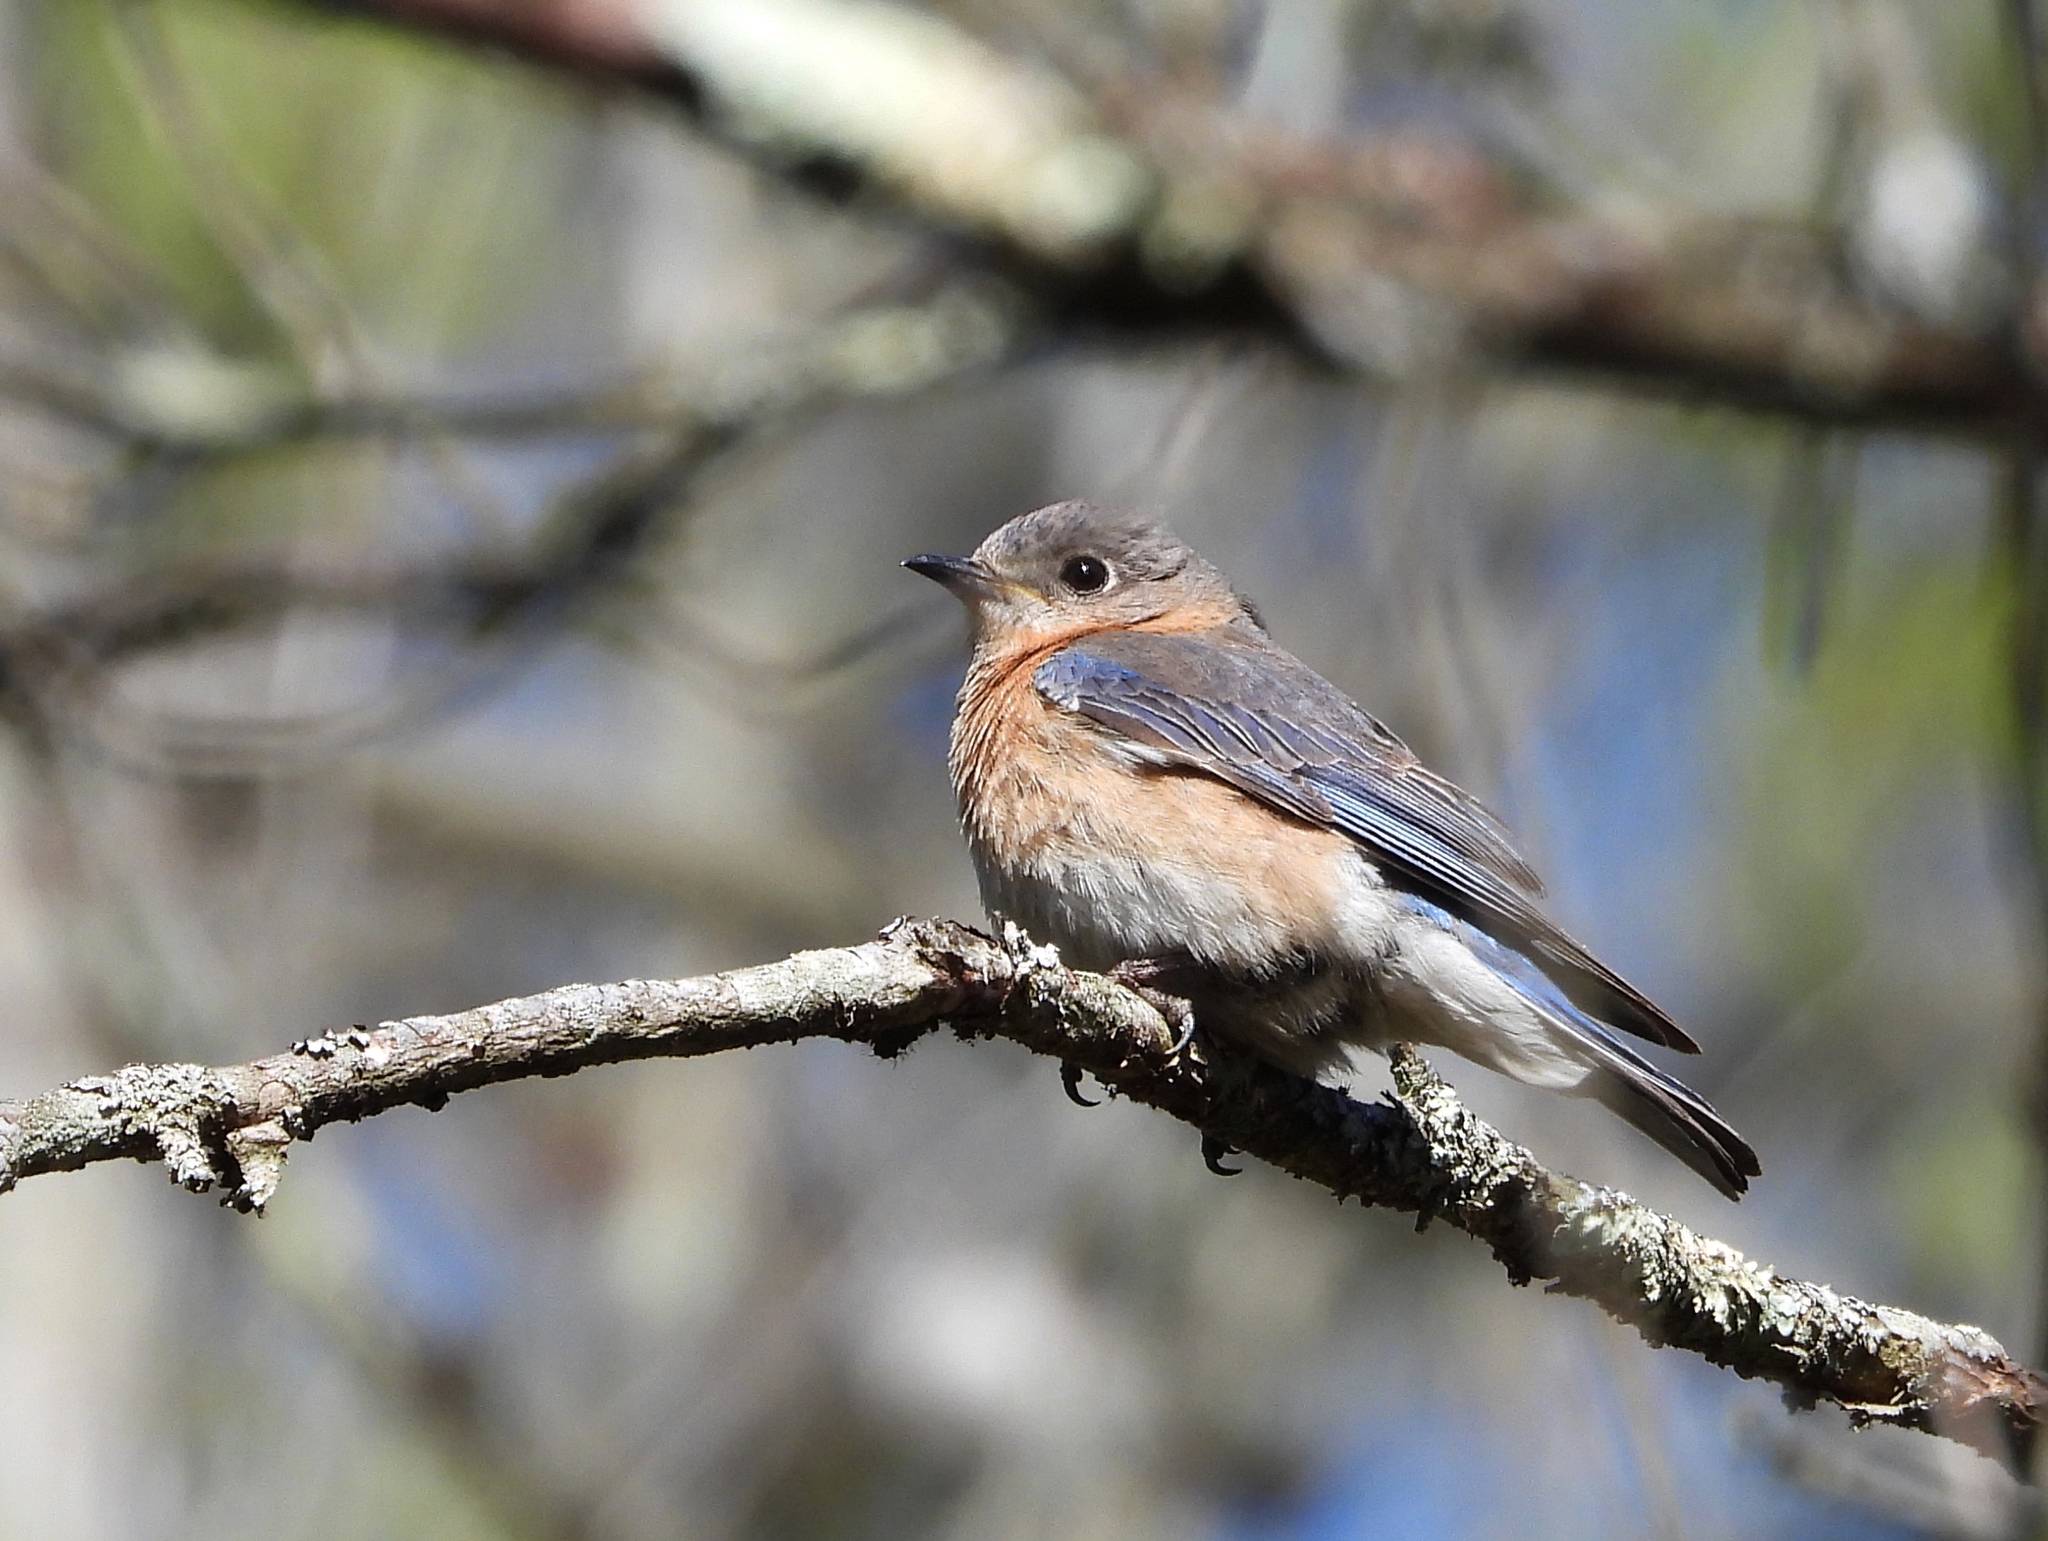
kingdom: Animalia
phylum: Chordata
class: Aves
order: Passeriformes
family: Turdidae
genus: Sialia
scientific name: Sialia sialis
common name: Eastern bluebird
